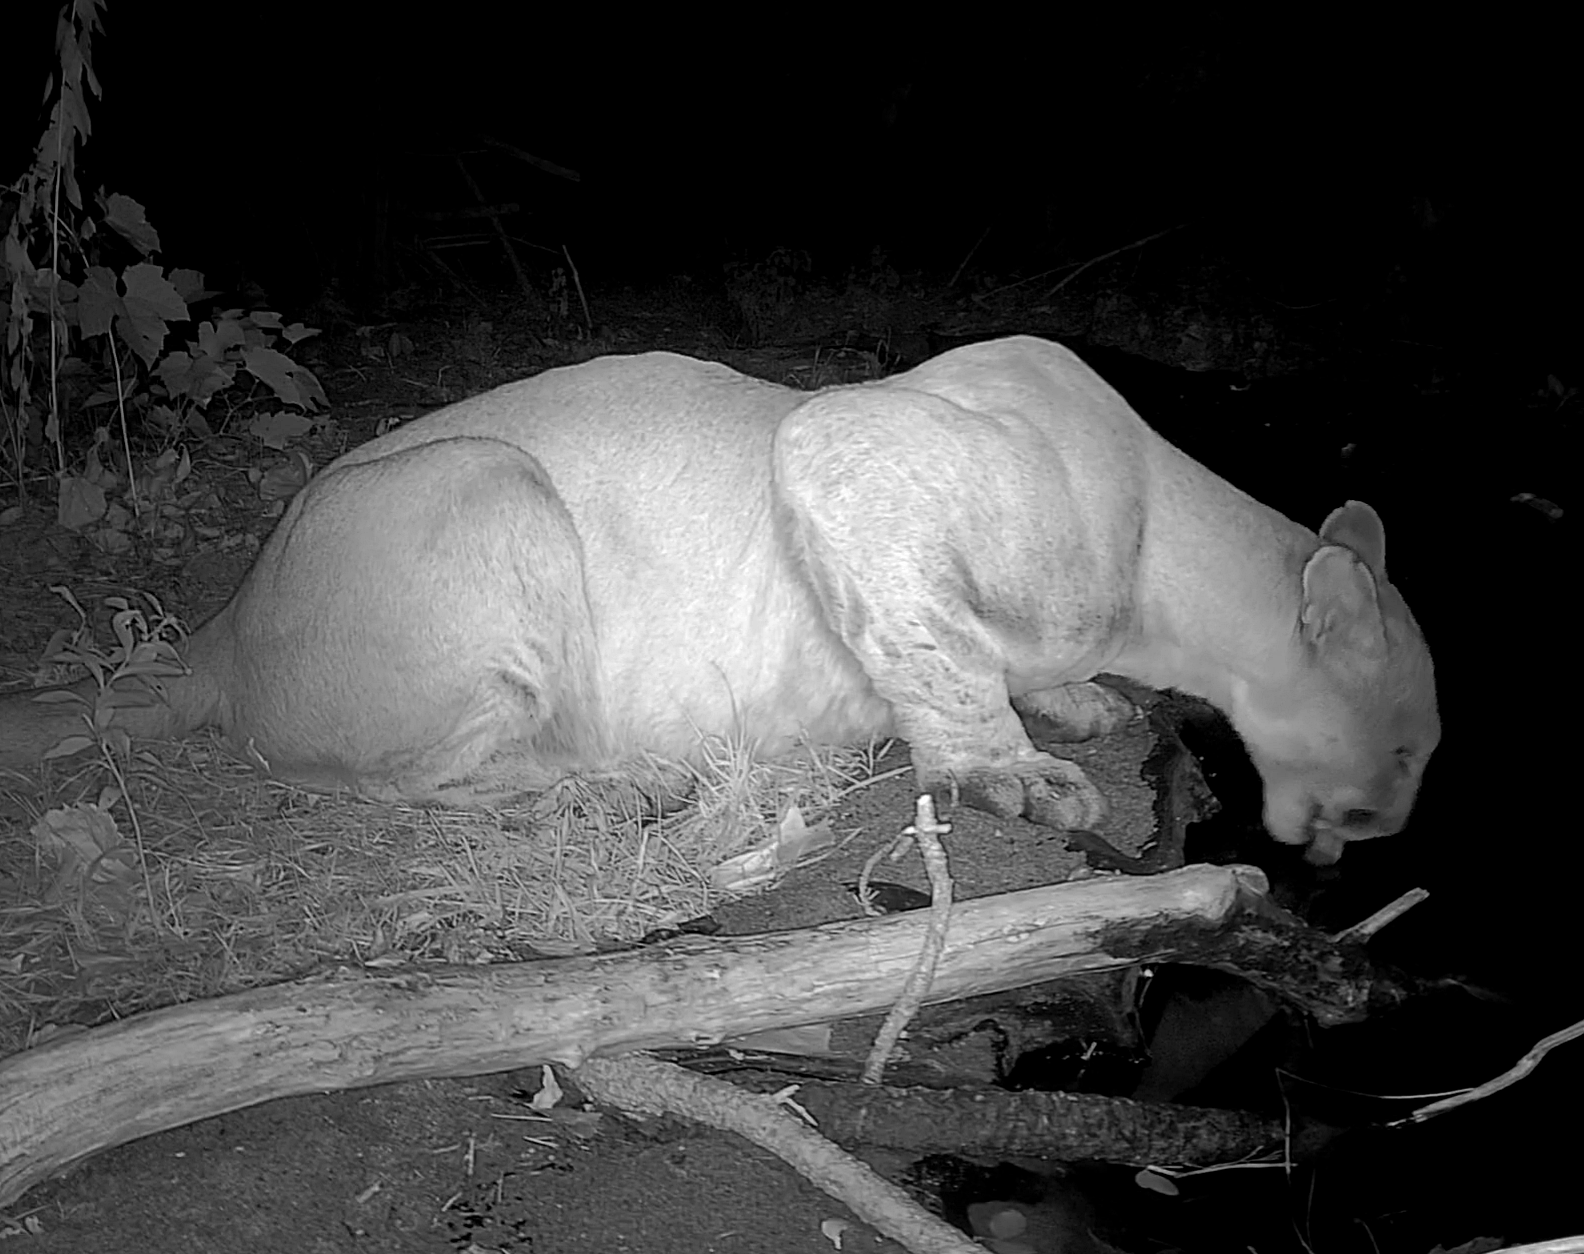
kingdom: Animalia
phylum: Chordata
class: Mammalia
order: Carnivora
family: Felidae
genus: Puma
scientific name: Puma concolor
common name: Puma
